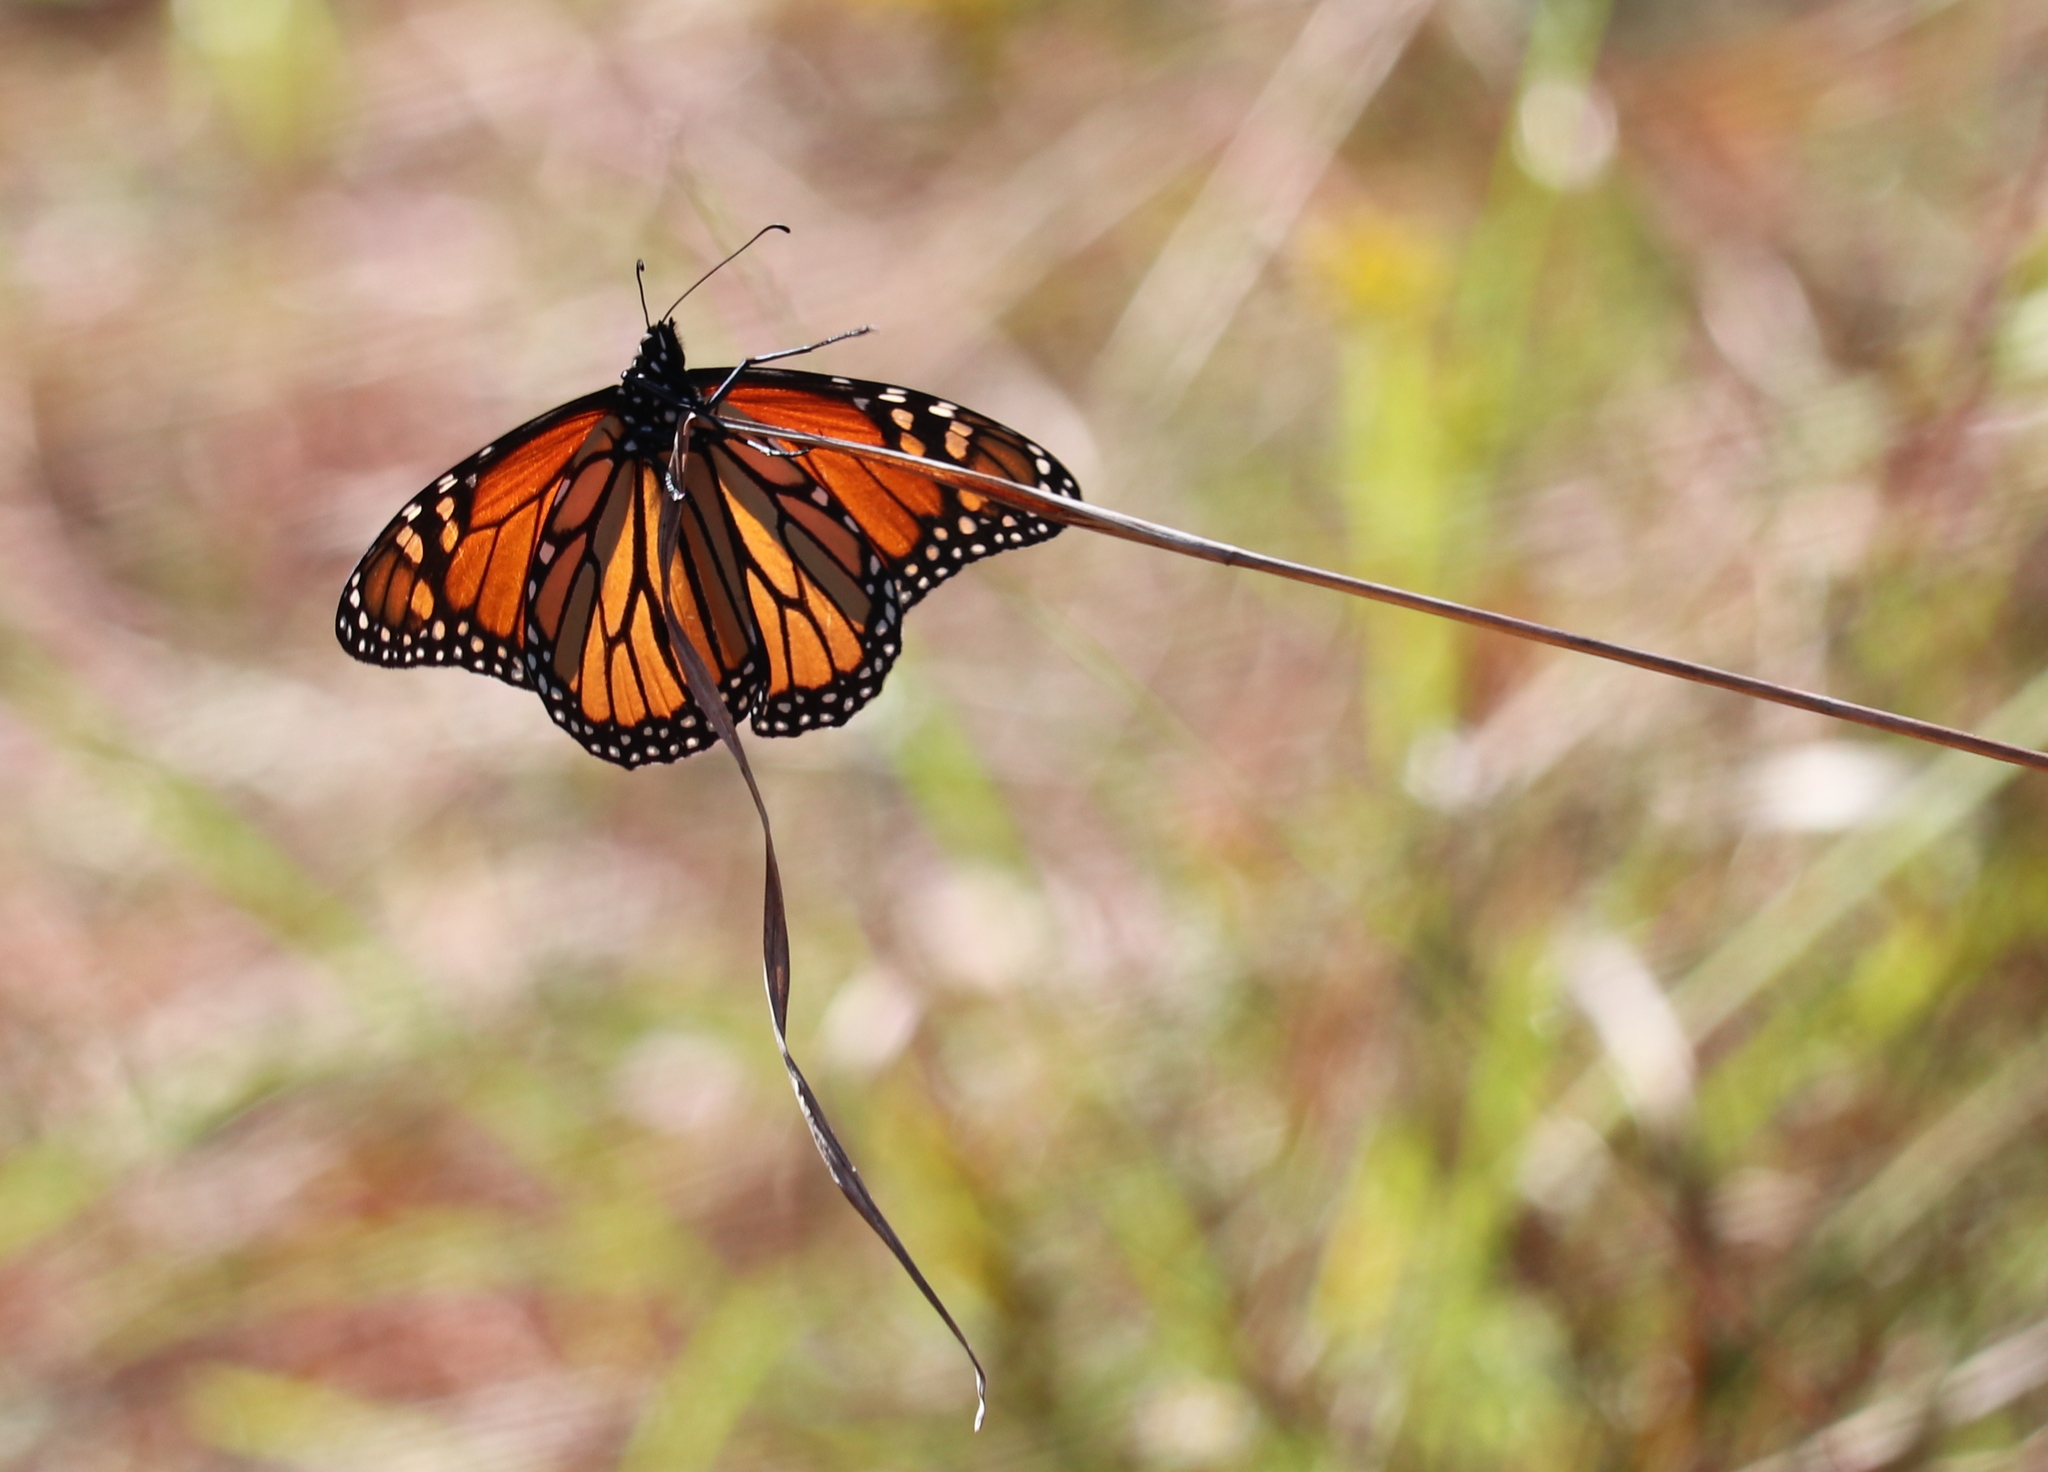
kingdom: Animalia
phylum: Arthropoda
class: Insecta
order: Lepidoptera
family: Nymphalidae
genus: Danaus
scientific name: Danaus plexippus
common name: Monarch
